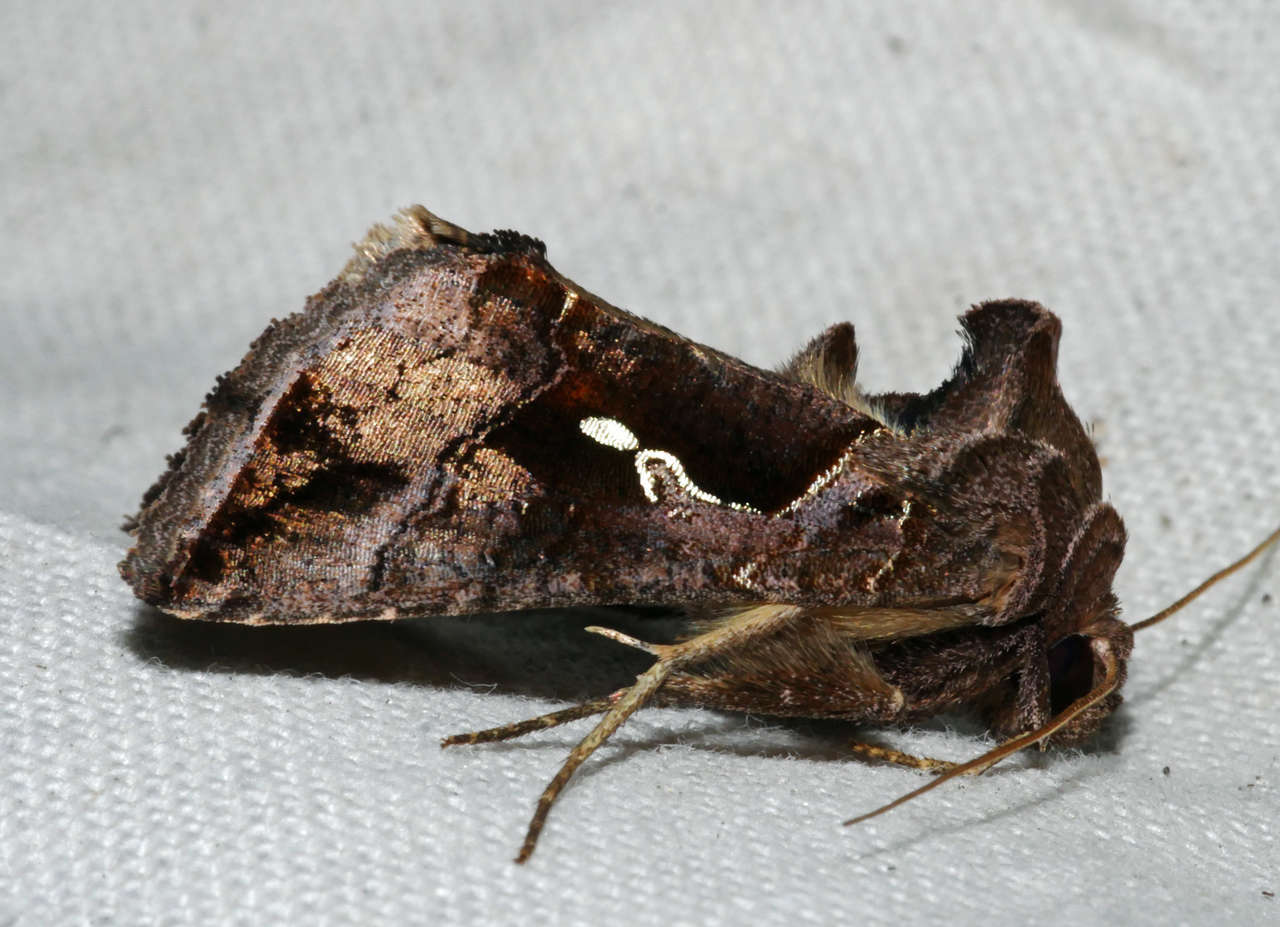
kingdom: Animalia
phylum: Arthropoda
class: Insecta
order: Lepidoptera
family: Noctuidae
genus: Chrysodeixis
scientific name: Chrysodeixis eriosoma
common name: Green garden looper
